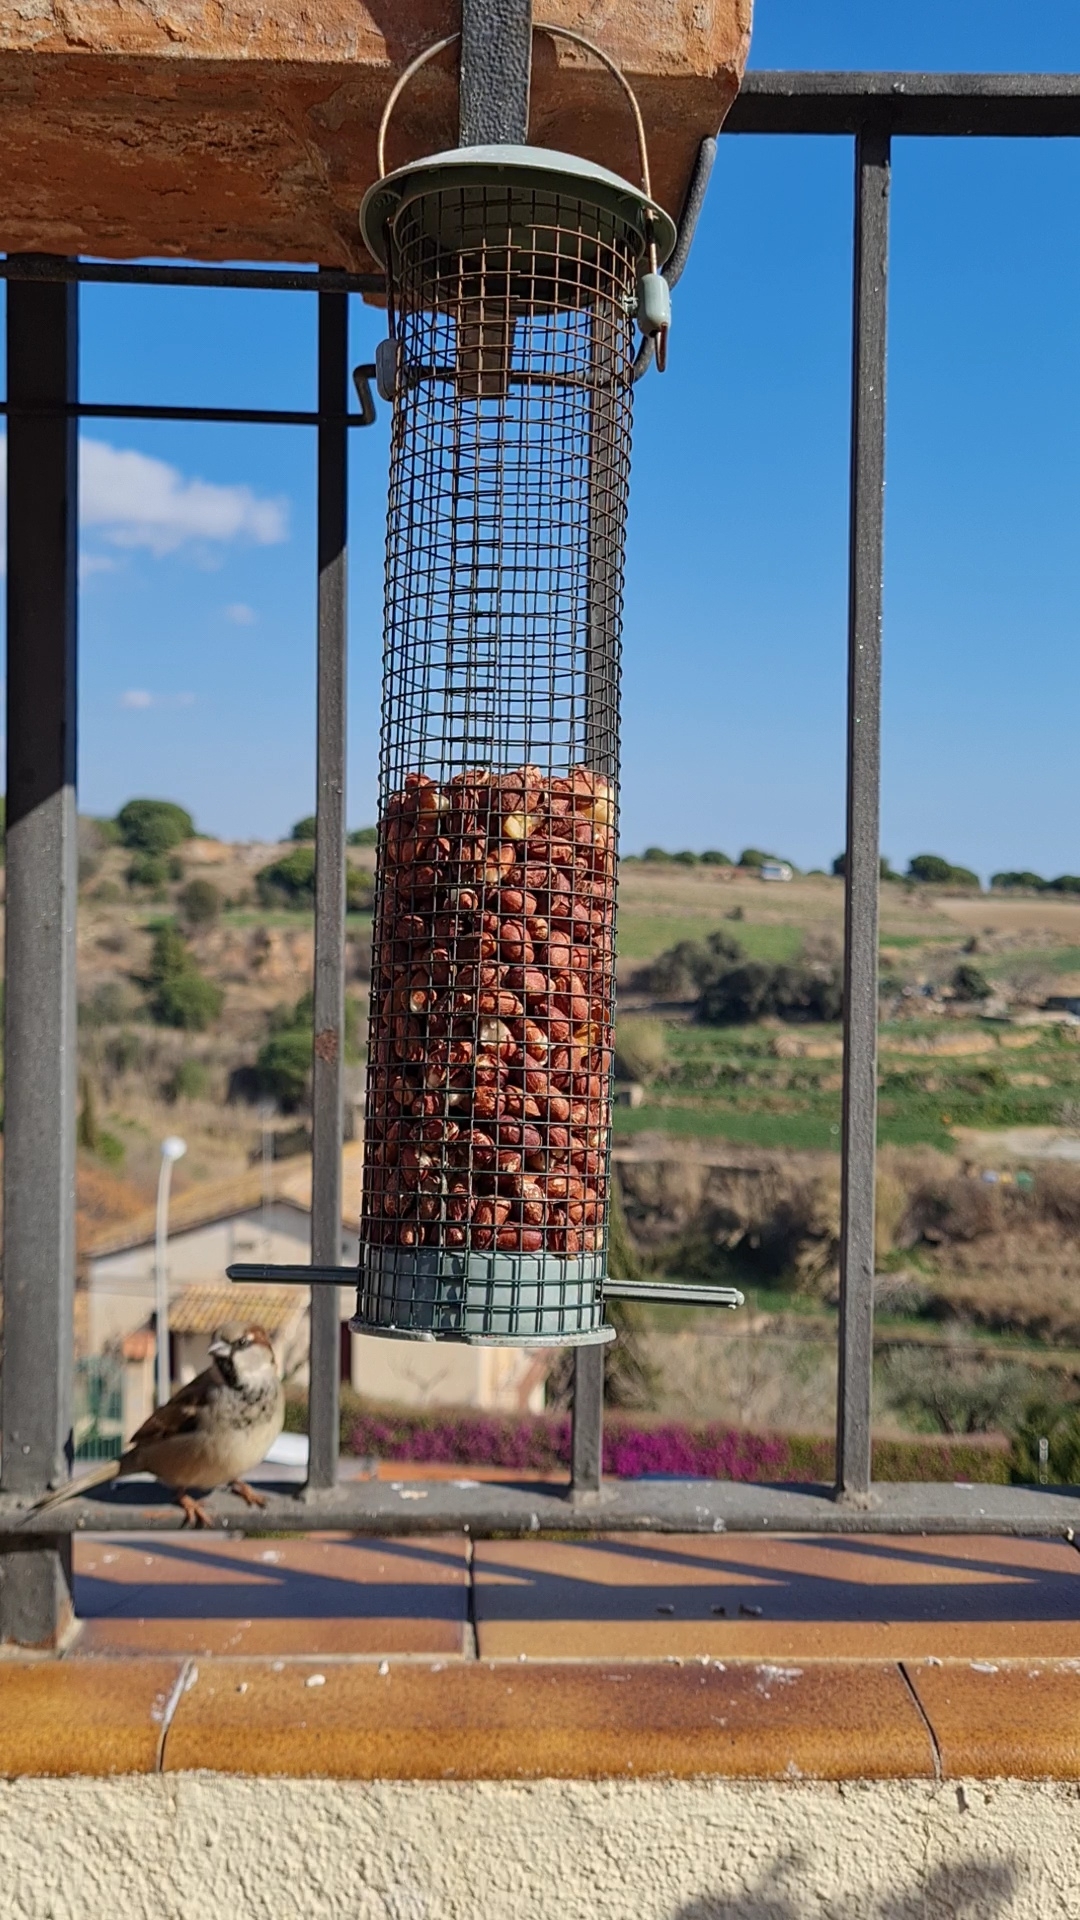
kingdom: Animalia
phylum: Chordata
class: Aves
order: Passeriformes
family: Passeridae
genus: Passer
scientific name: Passer domesticus
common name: House sparrow
